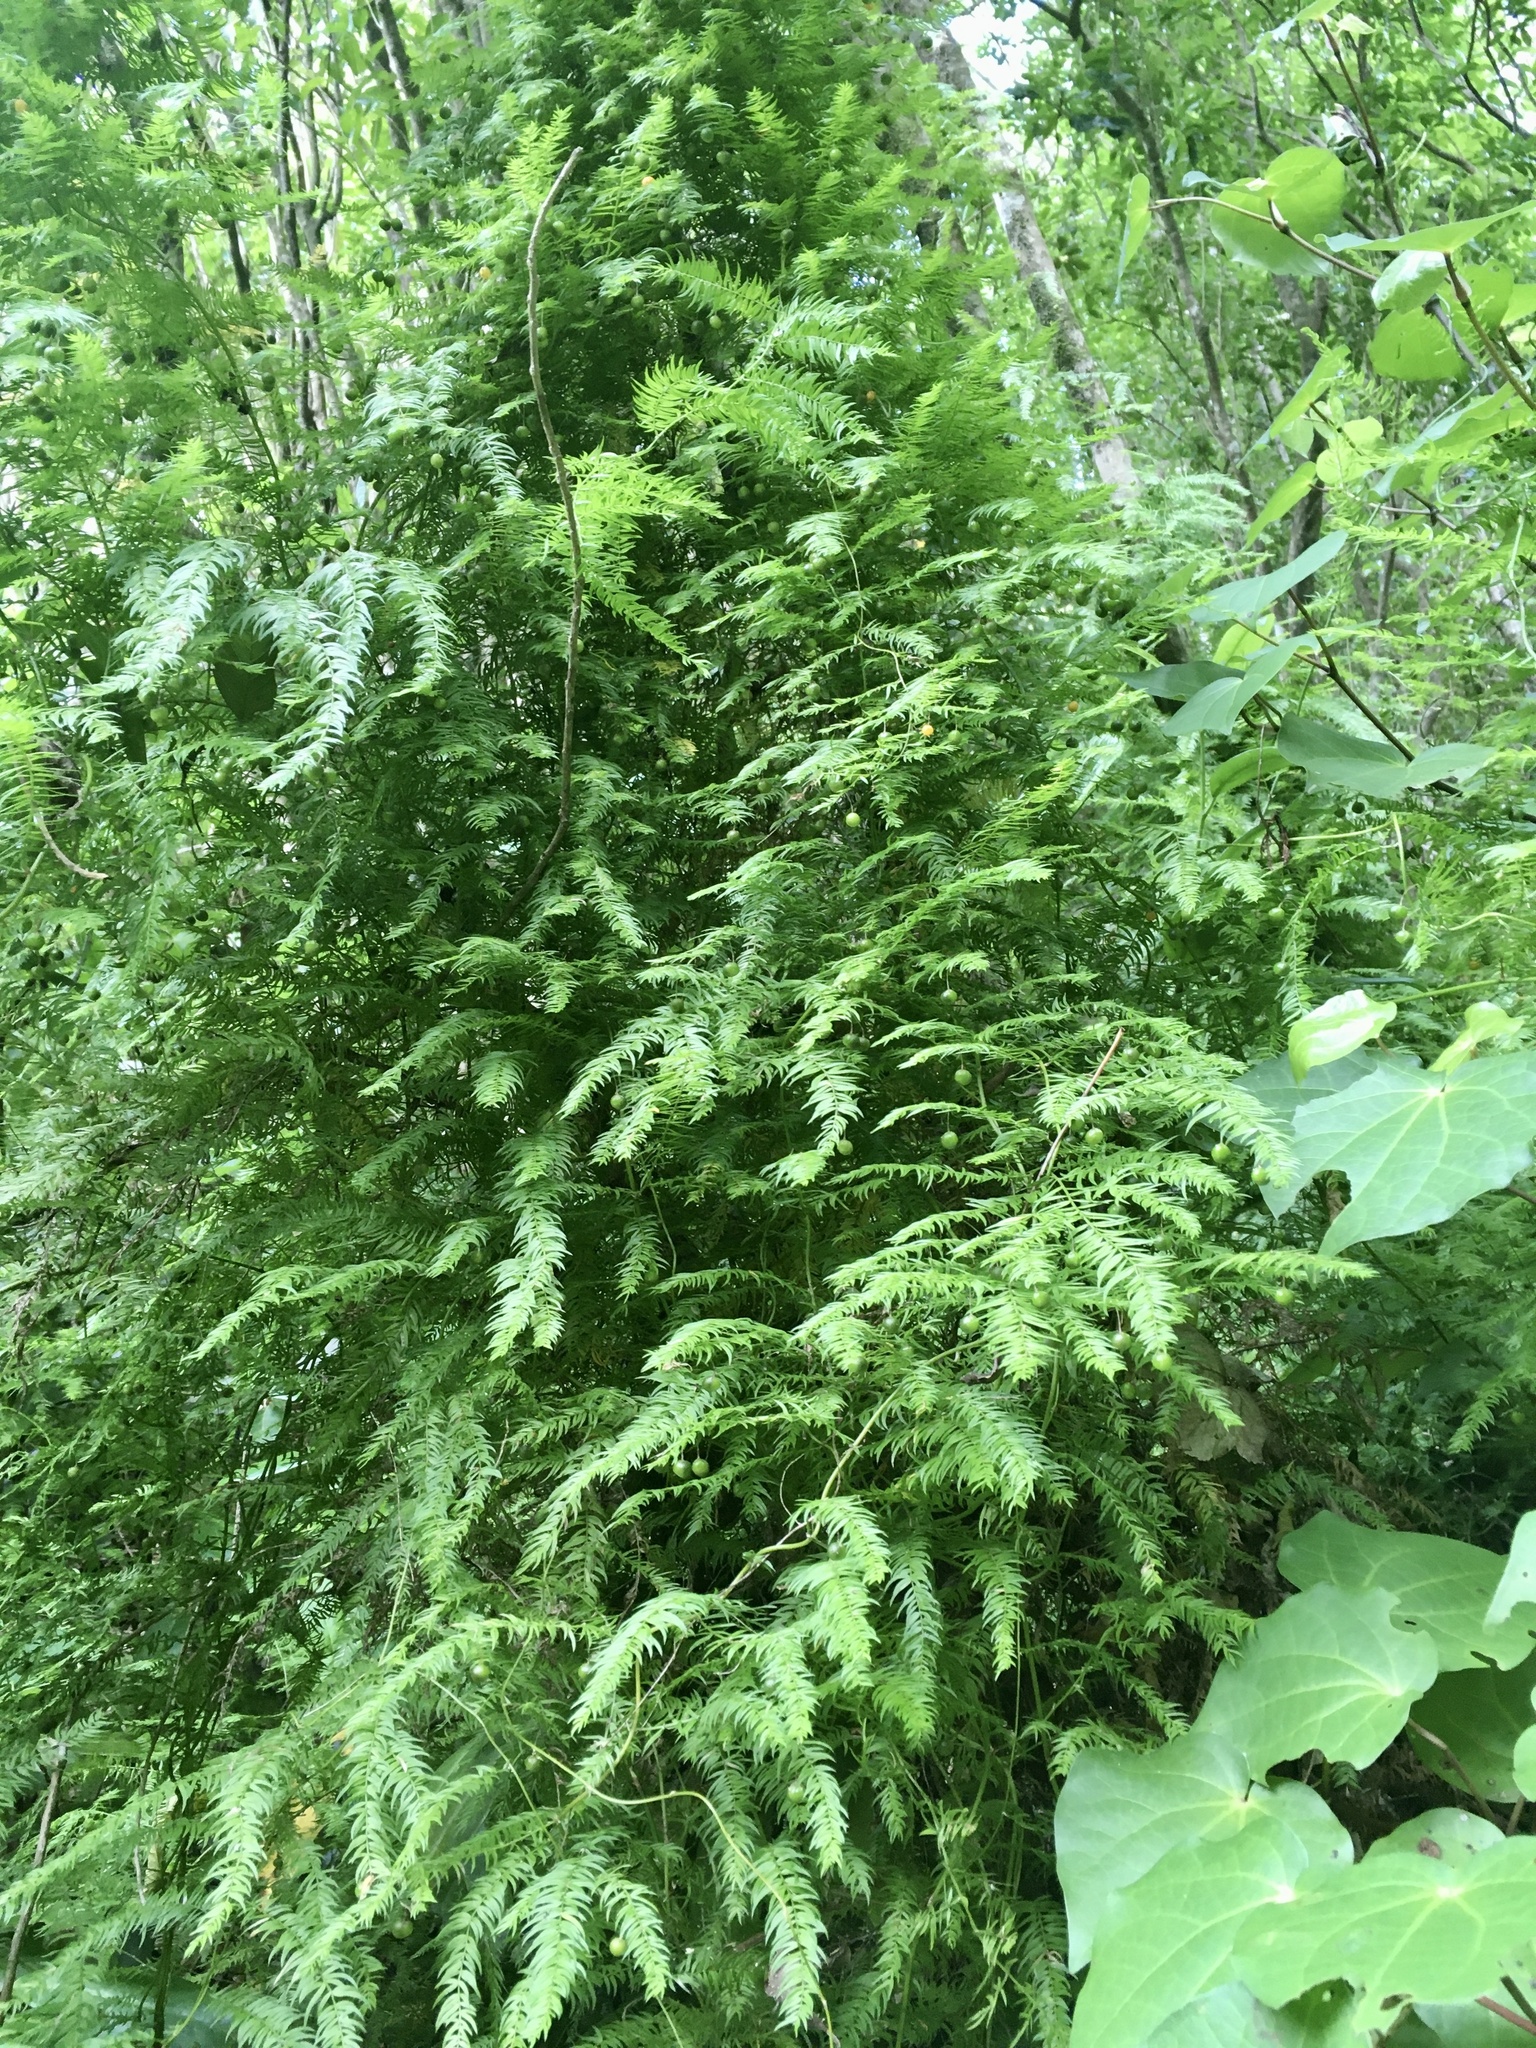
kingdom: Plantae
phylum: Tracheophyta
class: Liliopsida
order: Asparagales
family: Asparagaceae
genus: Asparagus
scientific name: Asparagus scandens
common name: Asparagus-fern
